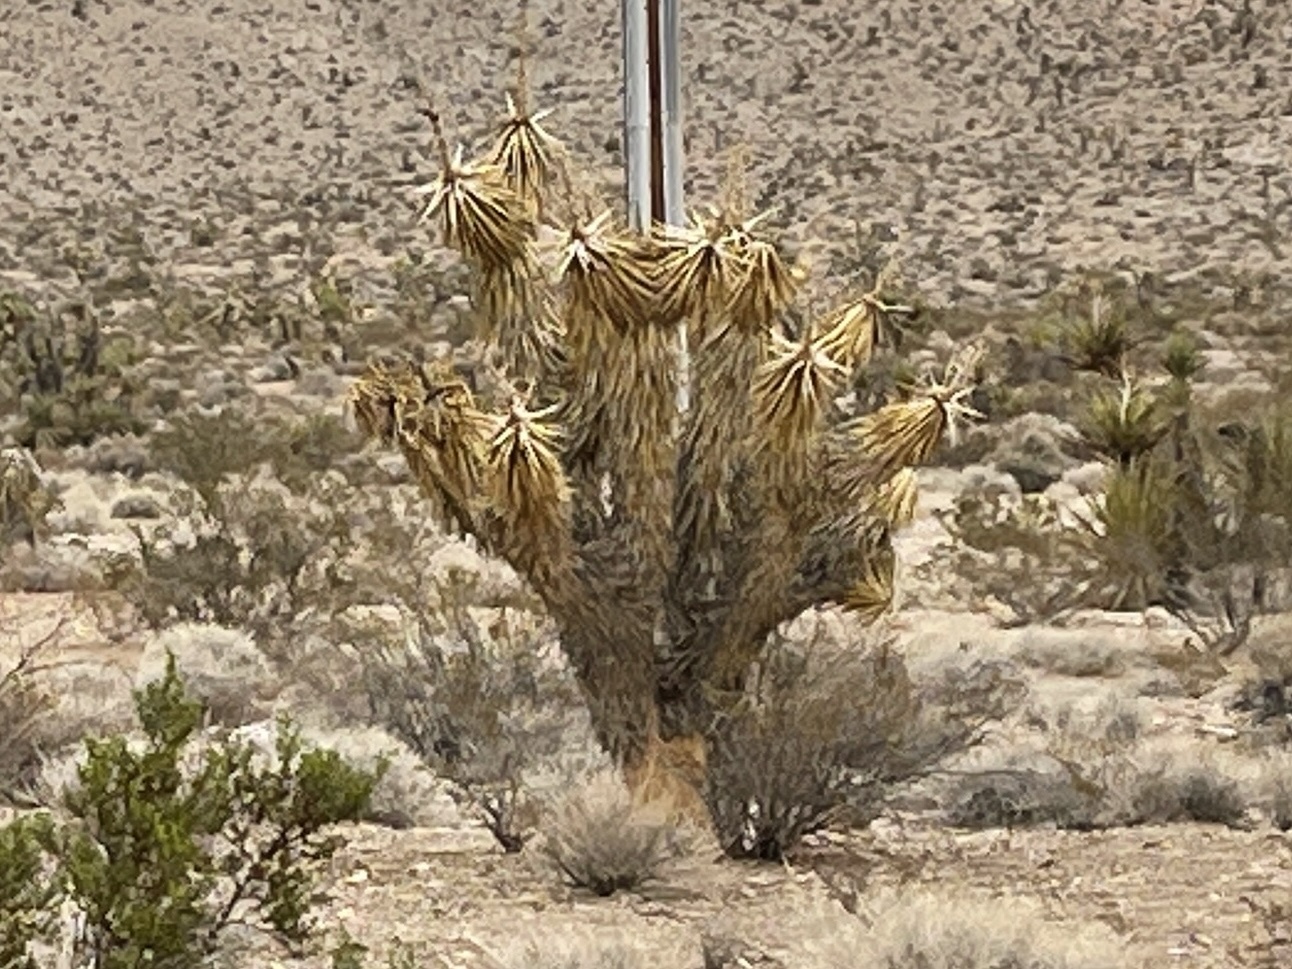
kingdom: Plantae
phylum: Tracheophyta
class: Liliopsida
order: Asparagales
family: Asparagaceae
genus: Yucca
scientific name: Yucca brevifolia
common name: Joshua tree
